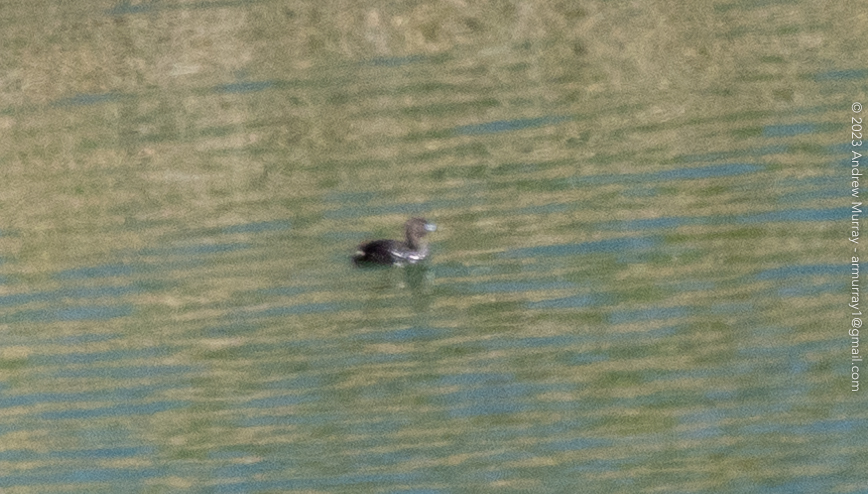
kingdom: Animalia
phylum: Chordata
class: Aves
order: Podicipediformes
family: Podicipedidae
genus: Podilymbus
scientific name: Podilymbus podiceps
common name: Pied-billed grebe
